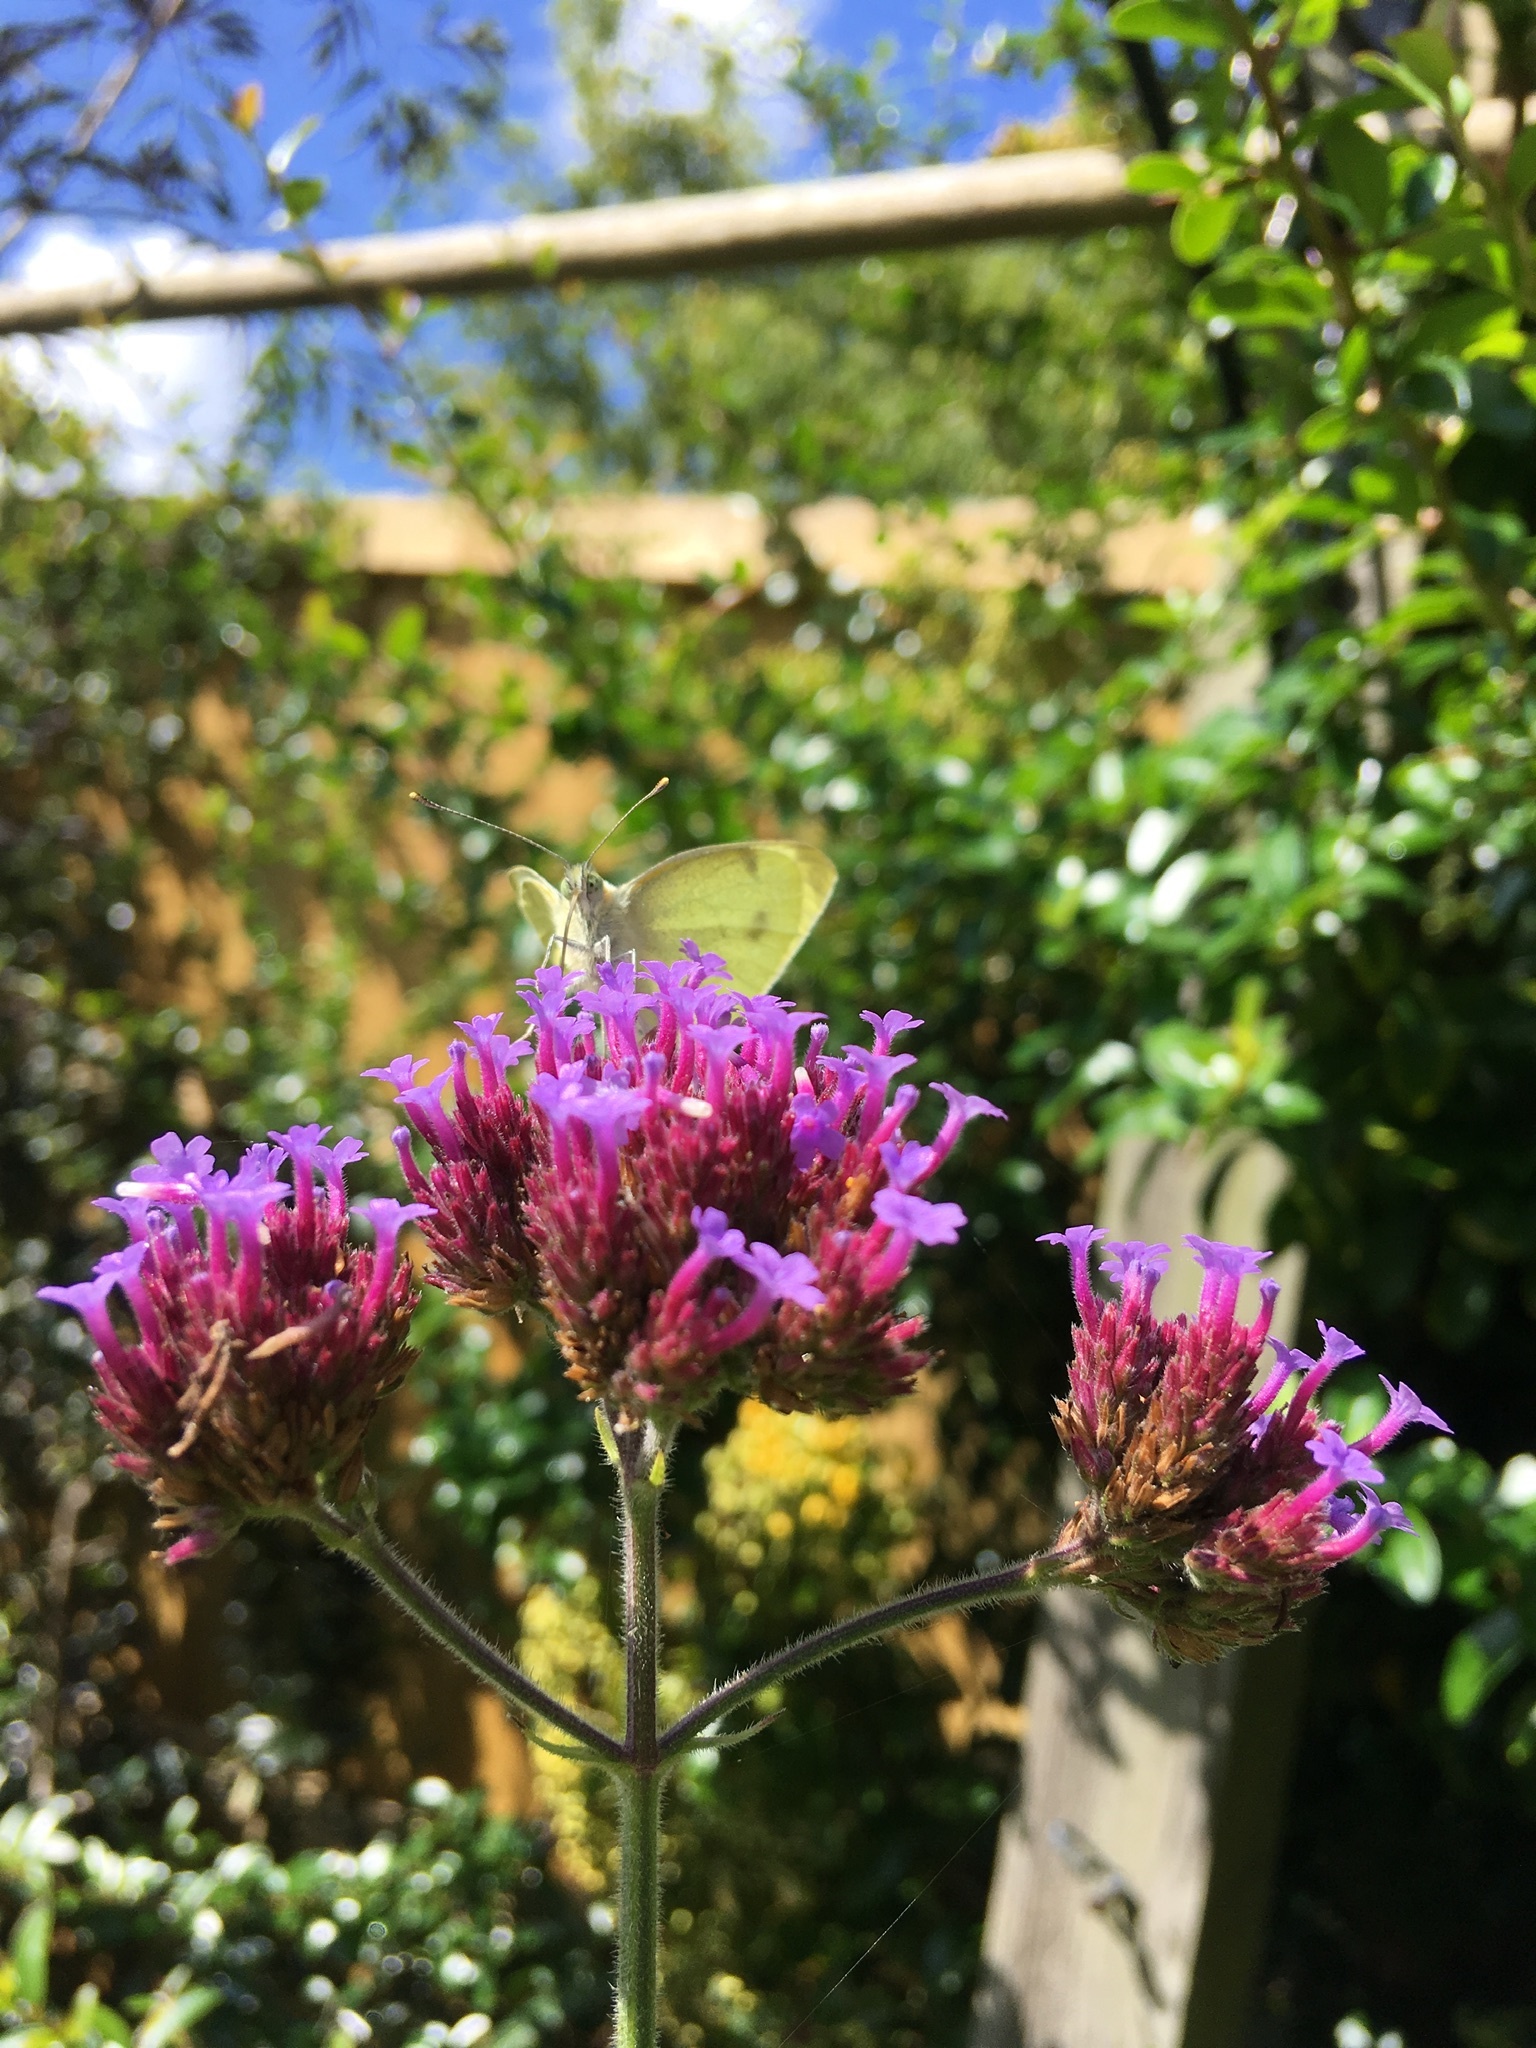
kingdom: Animalia
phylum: Arthropoda
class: Insecta
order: Lepidoptera
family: Pieridae
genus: Pieris
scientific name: Pieris rapae
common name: Small white
